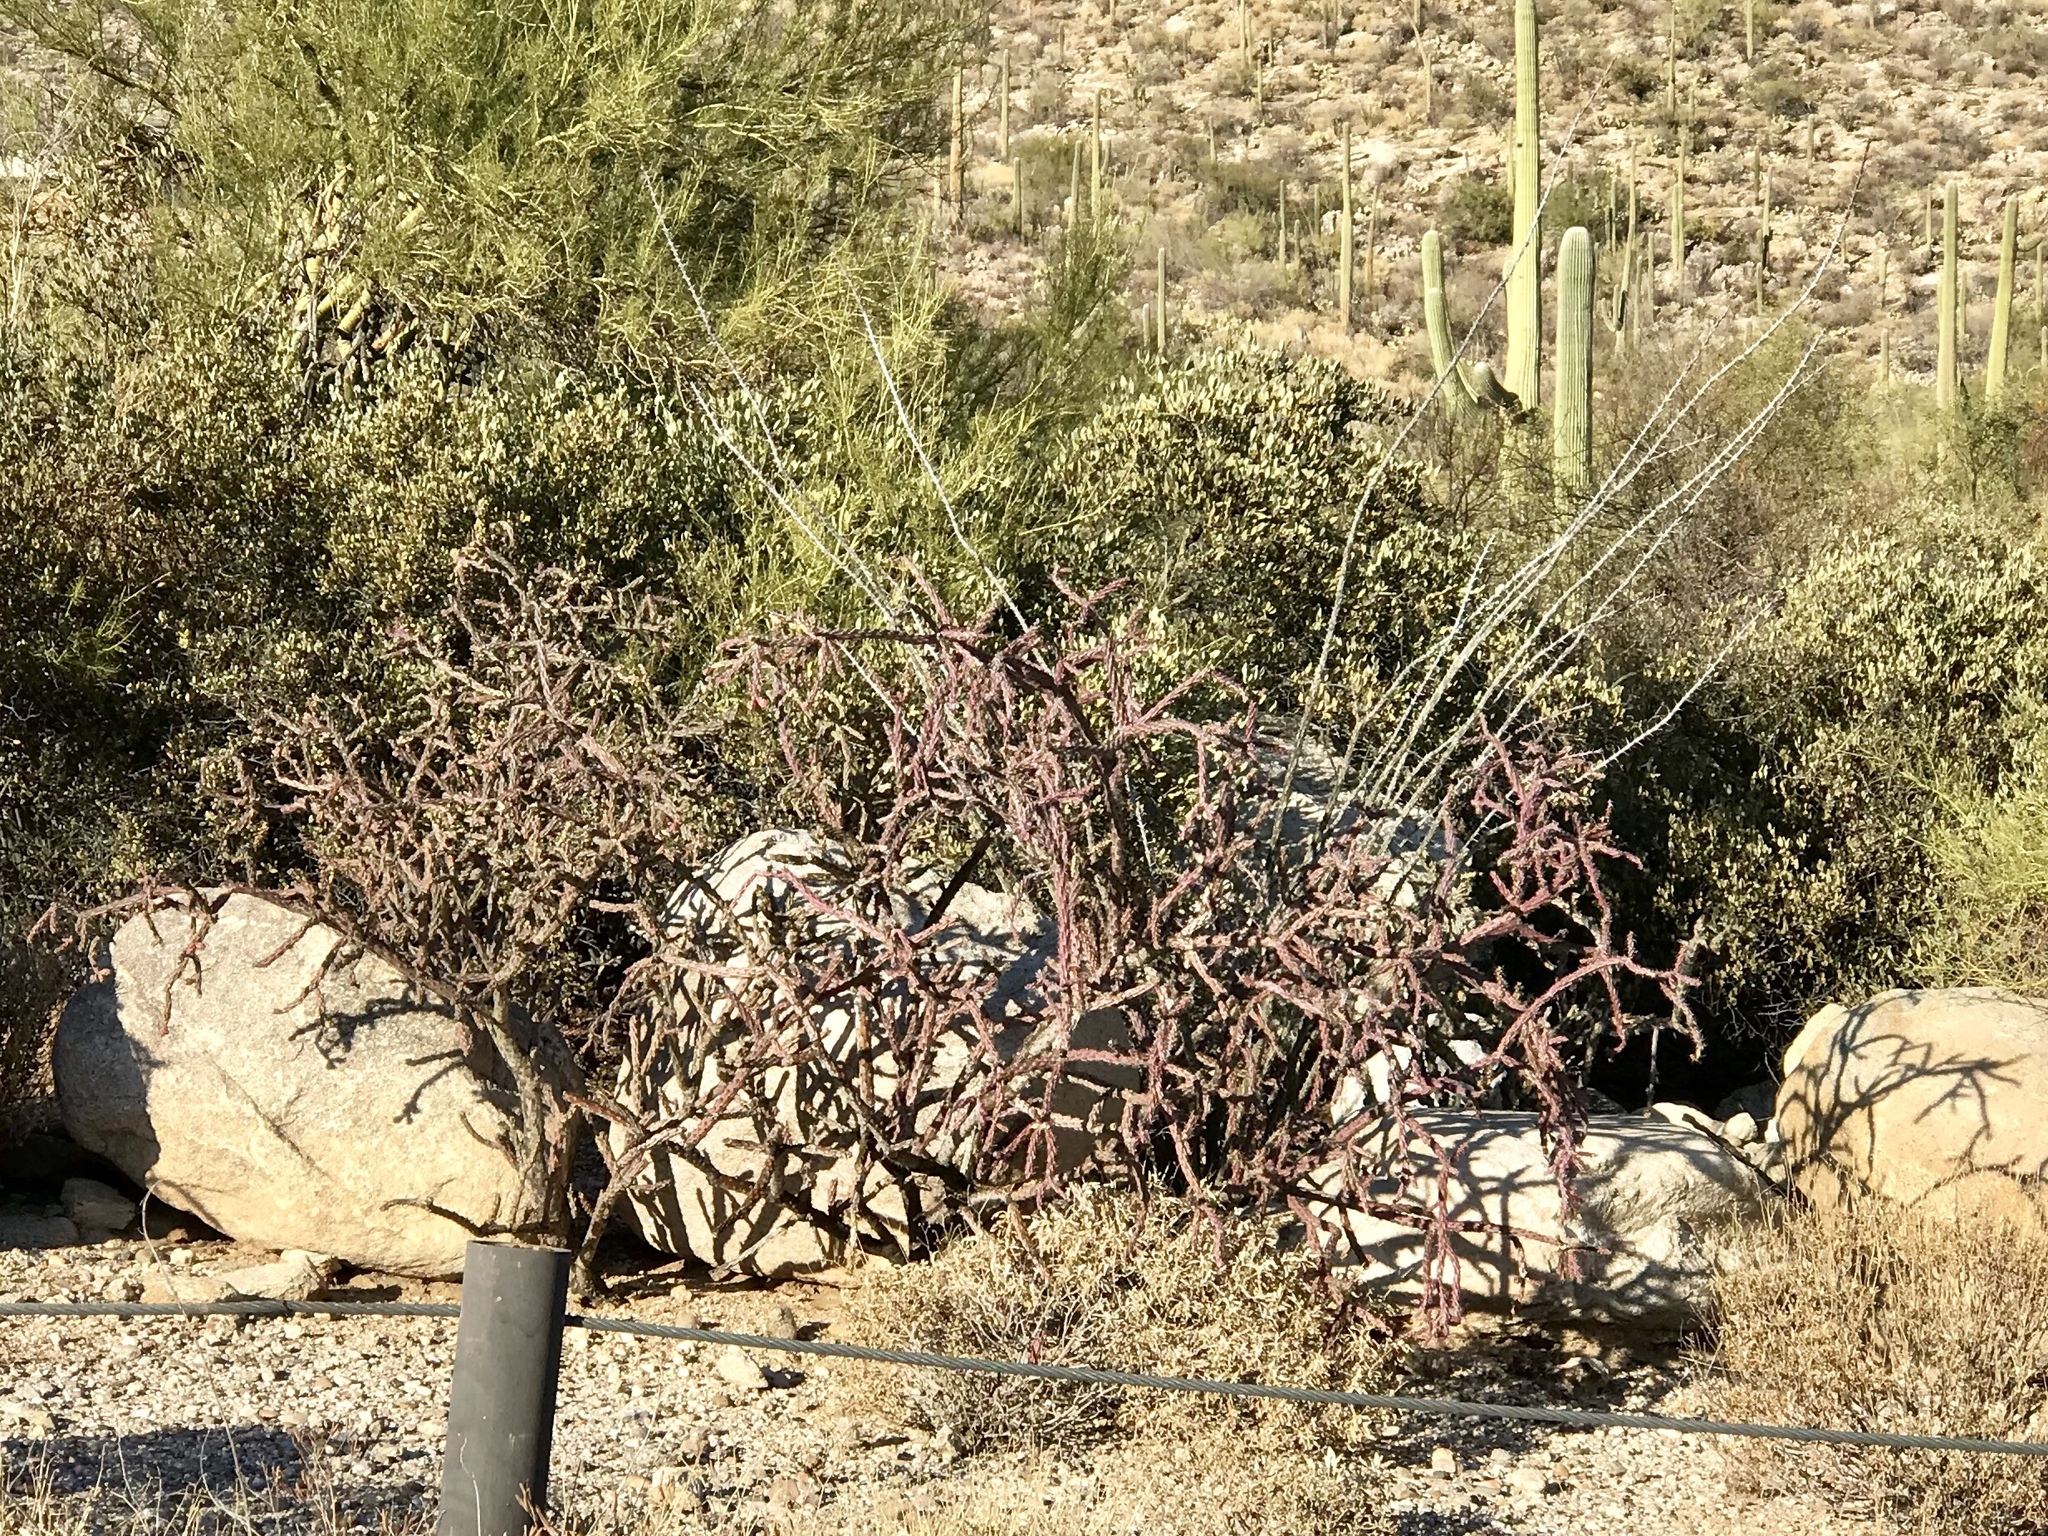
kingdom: Plantae
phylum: Tracheophyta
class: Magnoliopsida
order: Caryophyllales
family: Cactaceae
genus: Cylindropuntia
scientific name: Cylindropuntia thurberi
